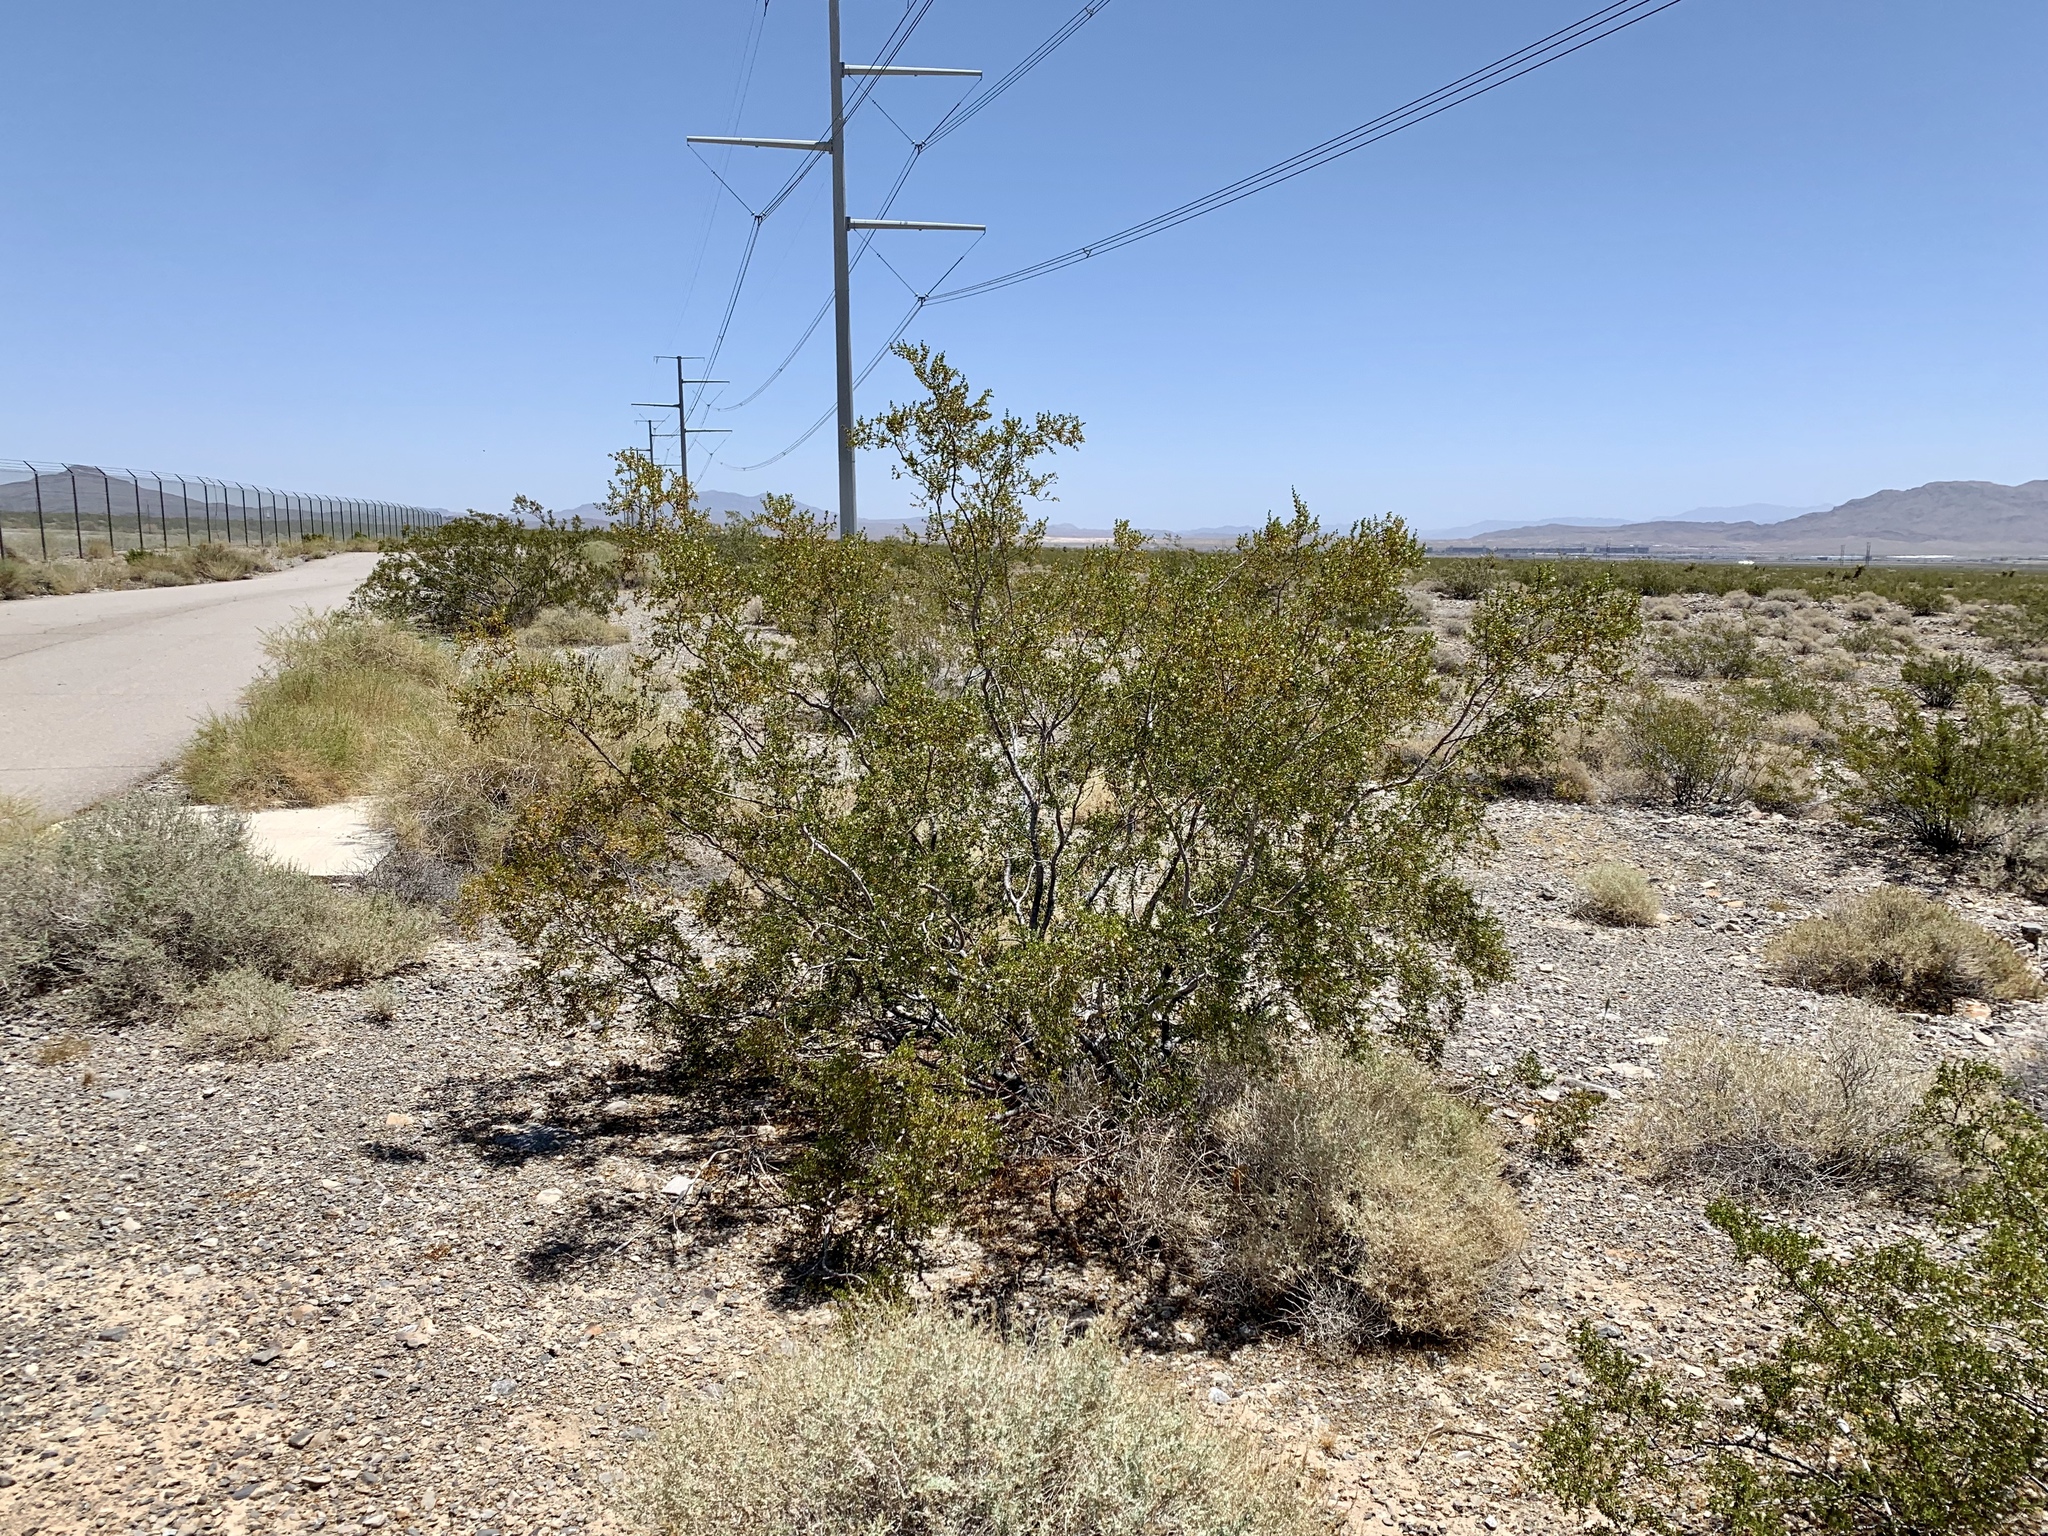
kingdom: Plantae
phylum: Tracheophyta
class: Magnoliopsida
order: Zygophyllales
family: Zygophyllaceae
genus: Larrea
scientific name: Larrea tridentata
